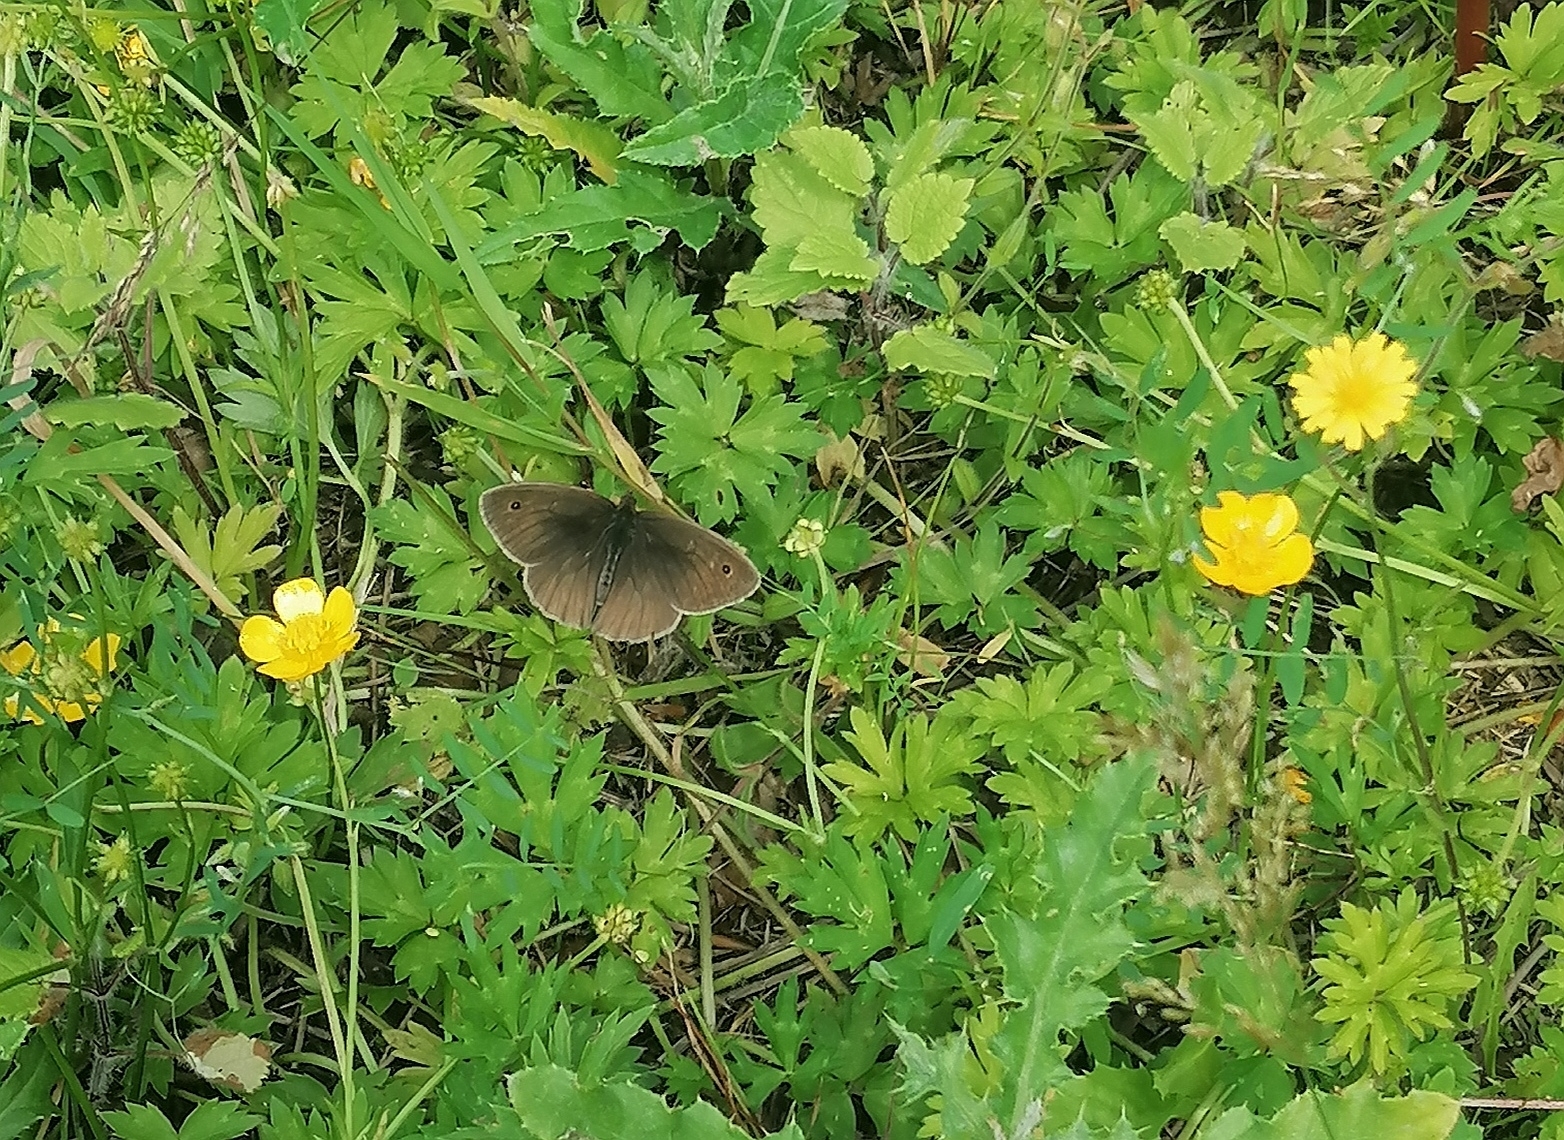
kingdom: Animalia
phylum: Arthropoda
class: Insecta
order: Lepidoptera
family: Nymphalidae
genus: Maniola
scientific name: Maniola jurtina
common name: Meadow brown
